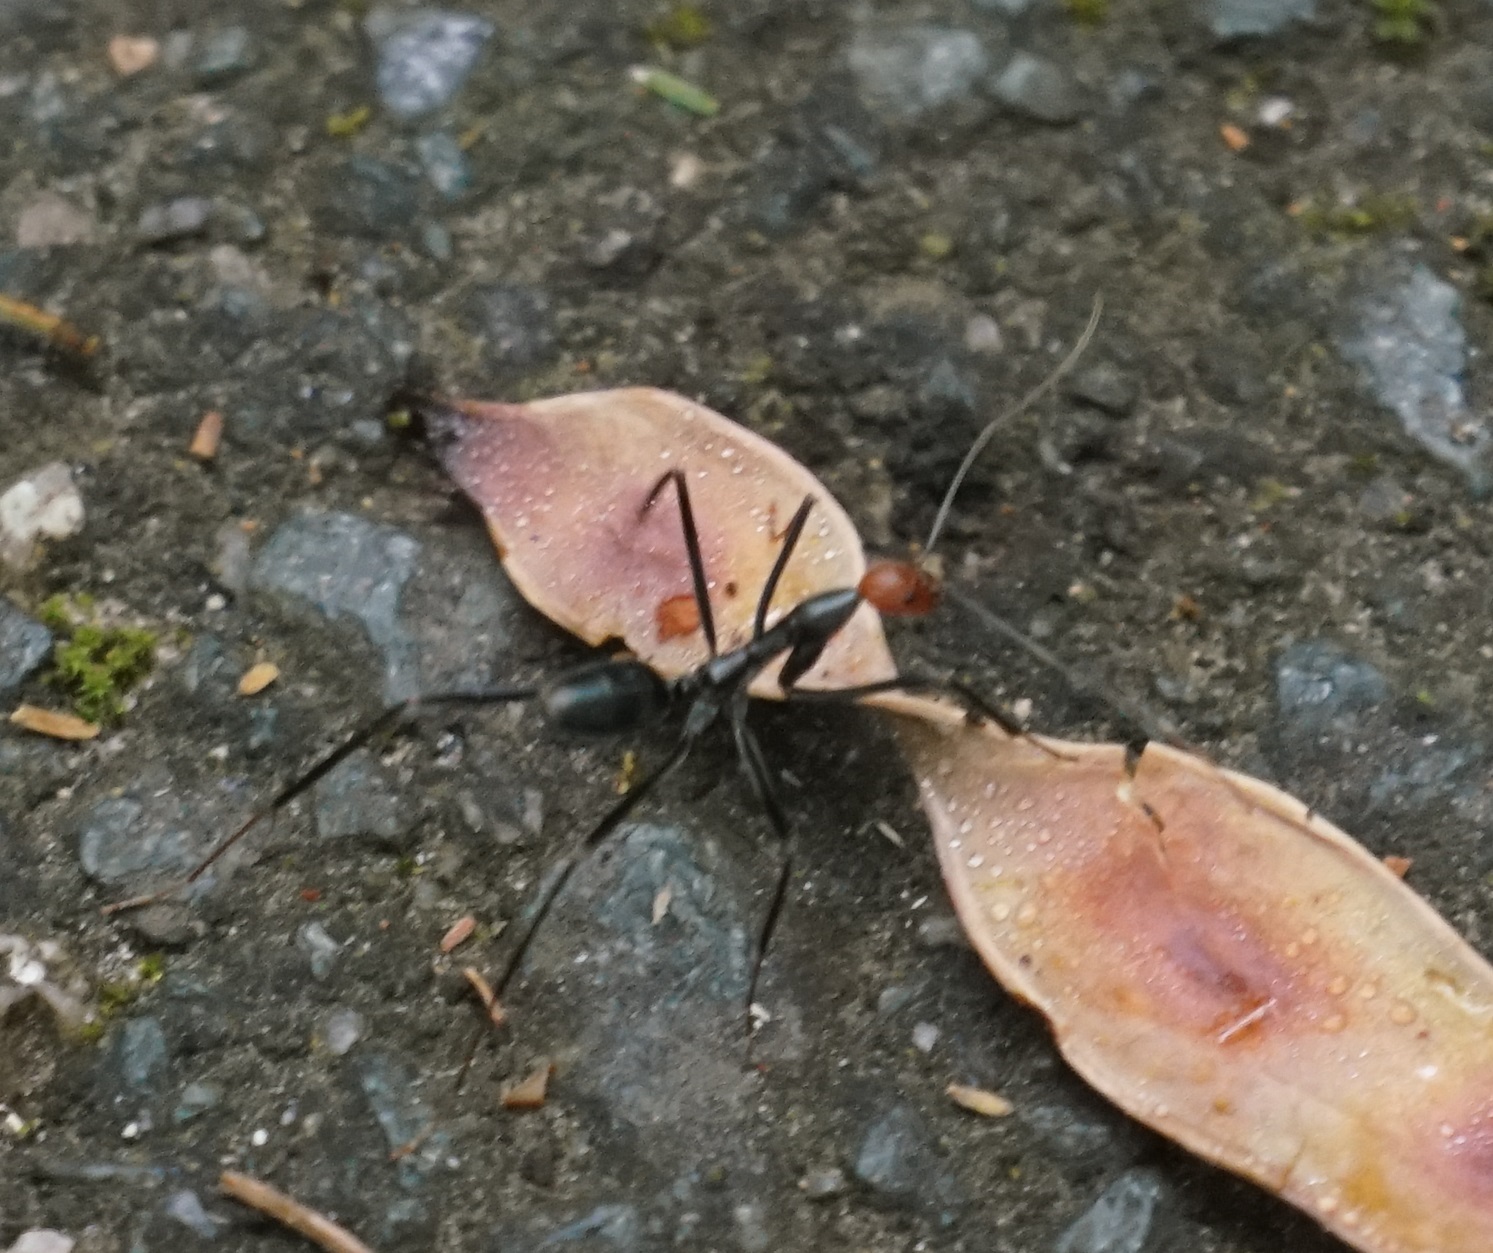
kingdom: Animalia
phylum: Arthropoda
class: Insecta
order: Hymenoptera
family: Formicidae
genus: Leptomyrmex
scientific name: Leptomyrmex erythrocephalus
